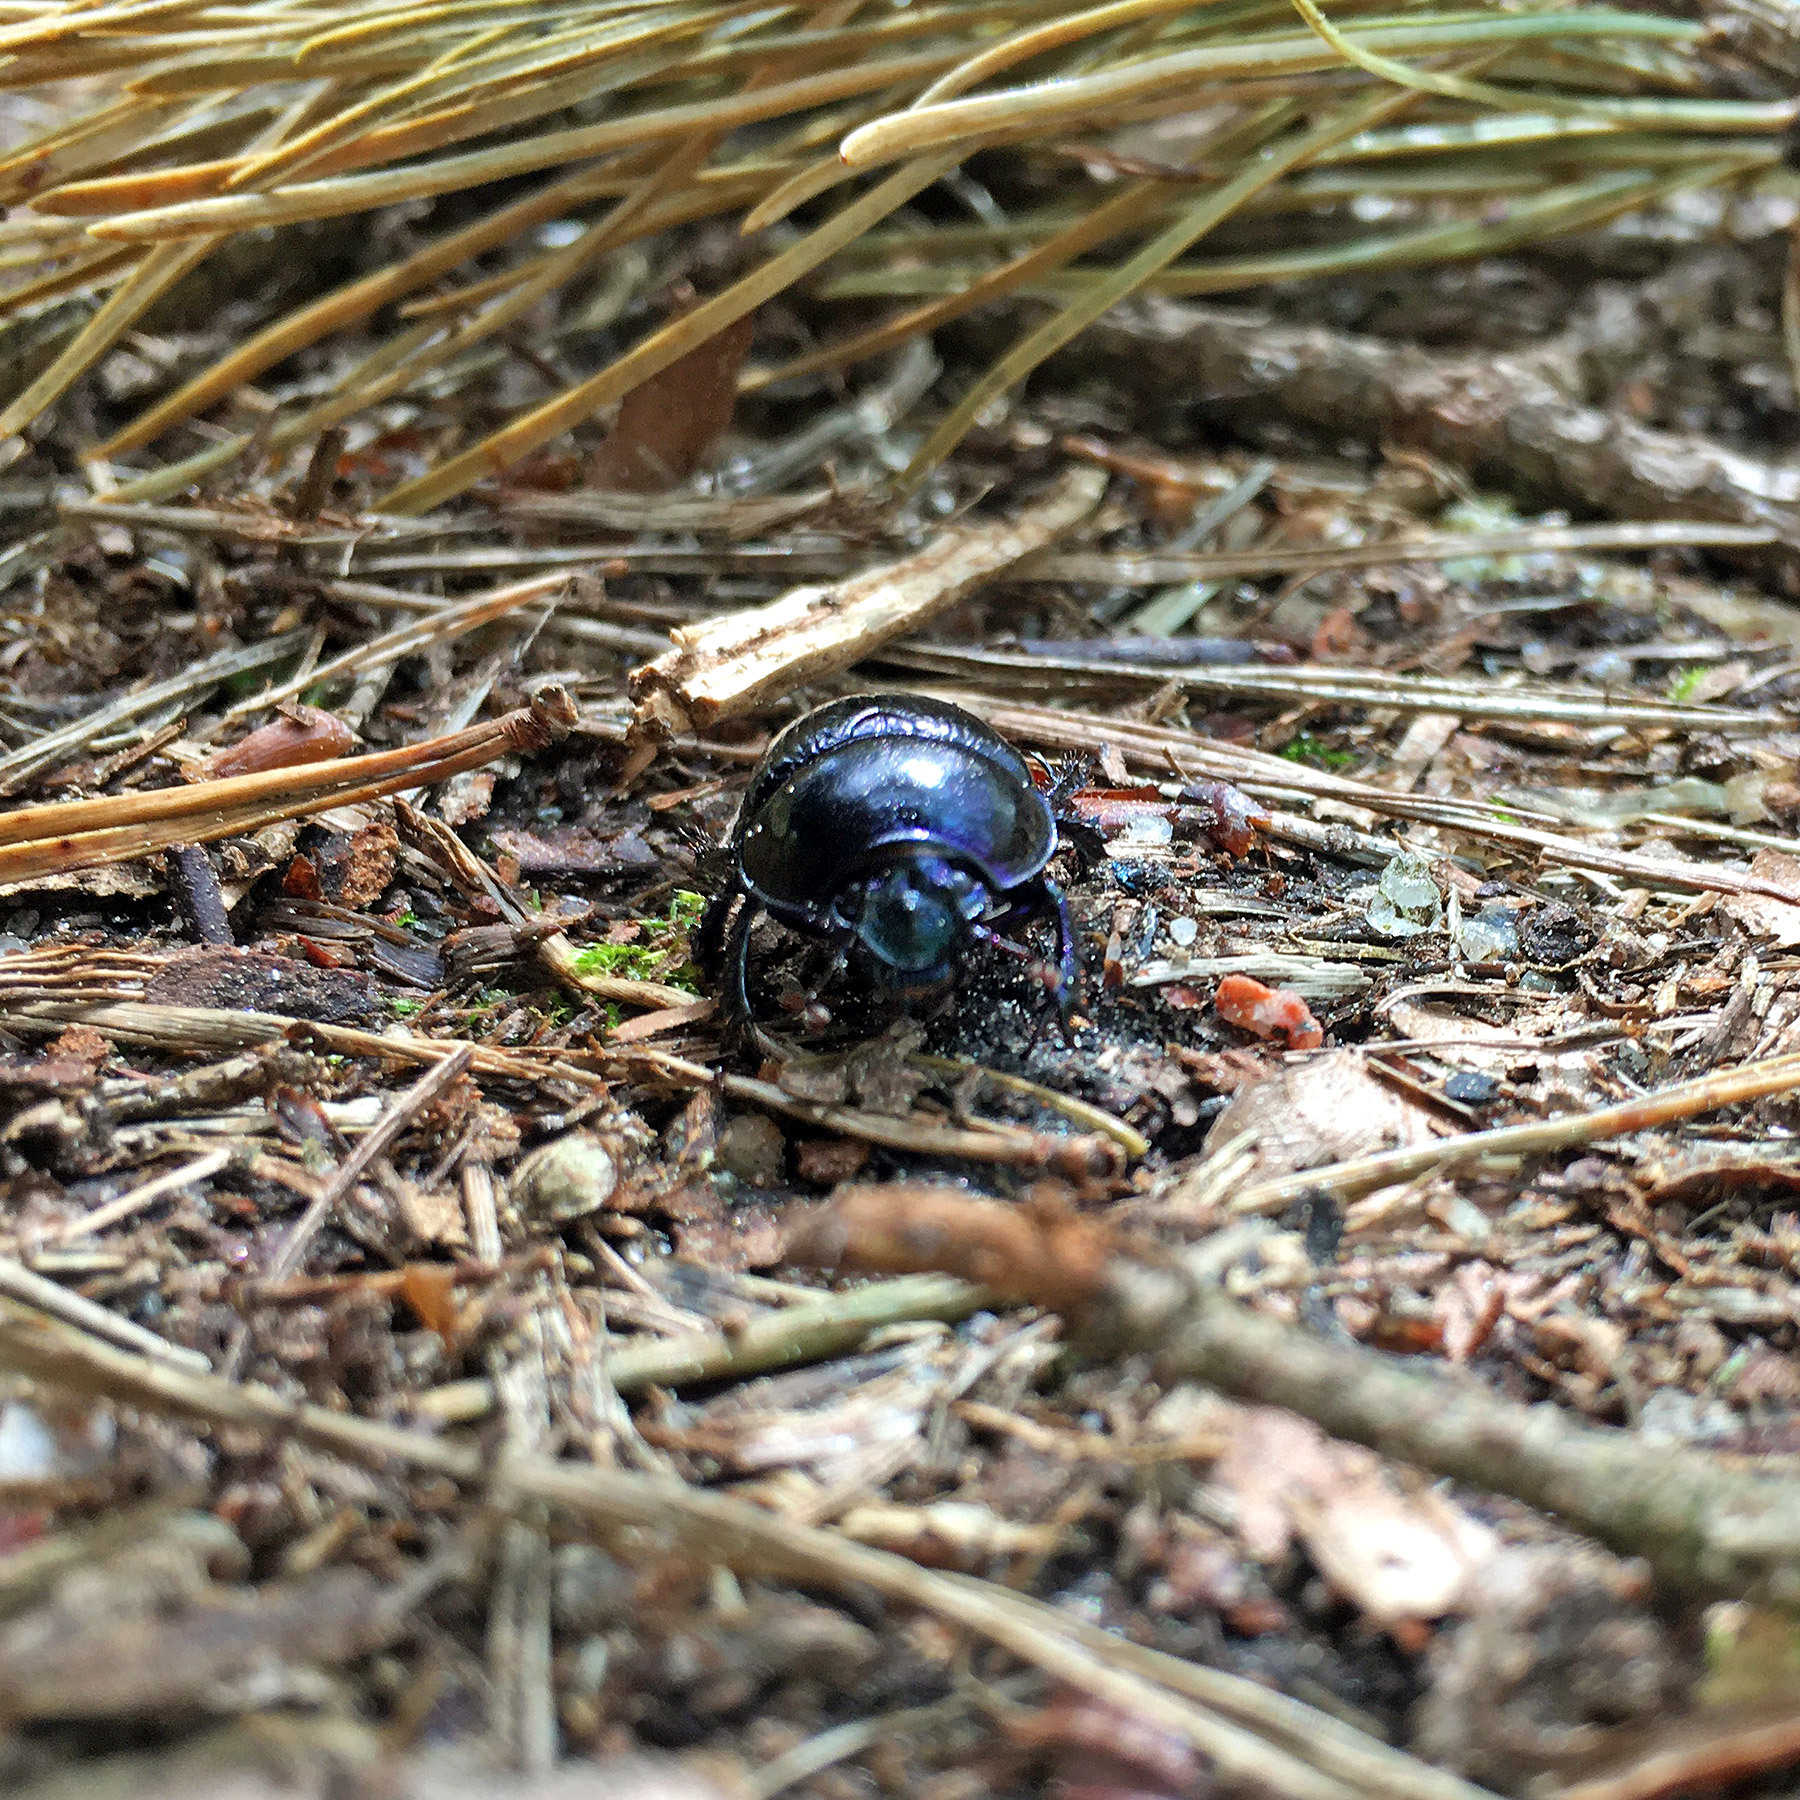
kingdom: Animalia
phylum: Arthropoda
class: Insecta
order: Coleoptera
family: Geotrupidae
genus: Anoplotrupes
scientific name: Anoplotrupes stercorosus
